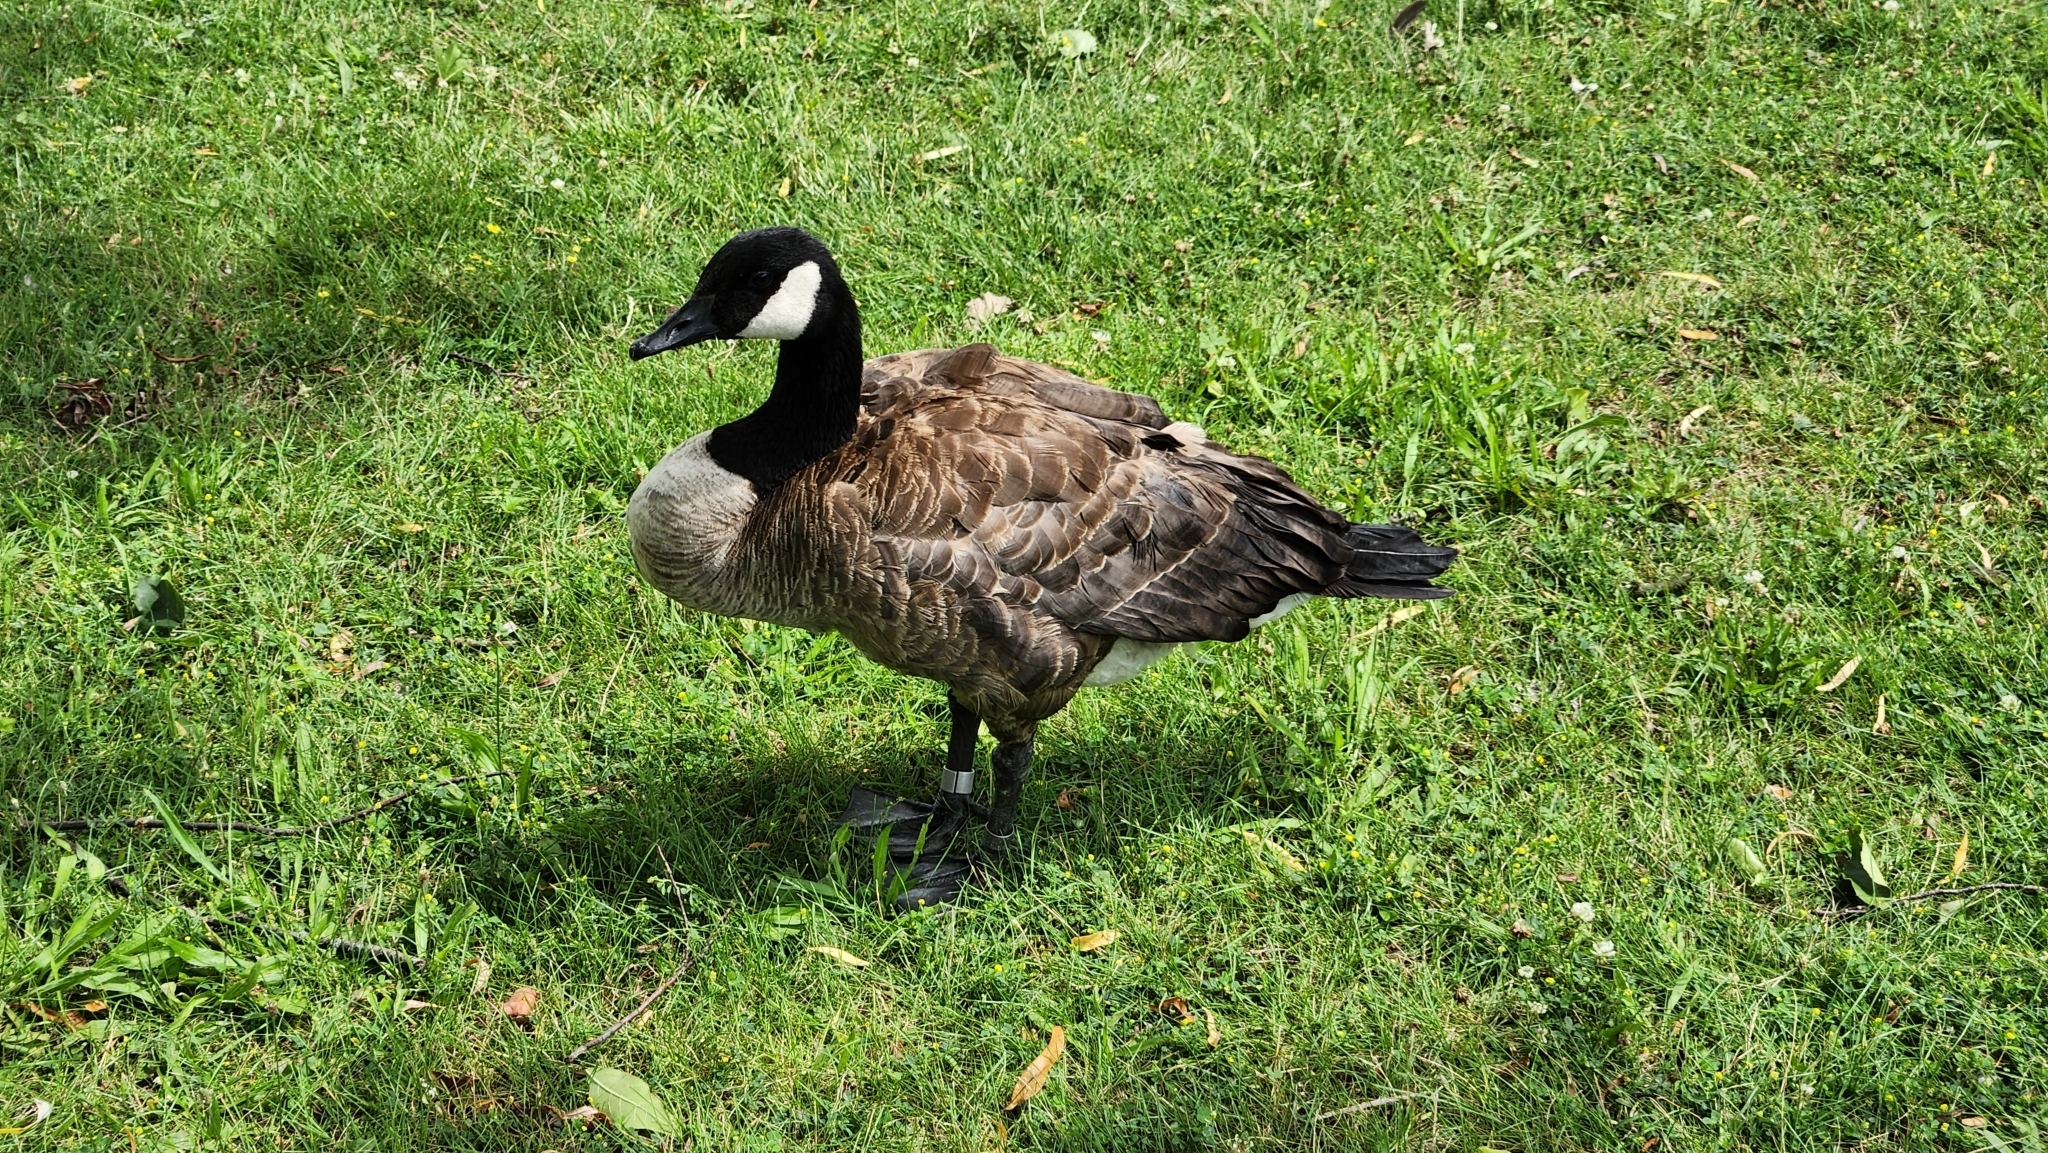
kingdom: Animalia
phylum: Chordata
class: Aves
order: Anseriformes
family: Anatidae
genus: Branta
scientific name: Branta canadensis
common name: Canada goose
